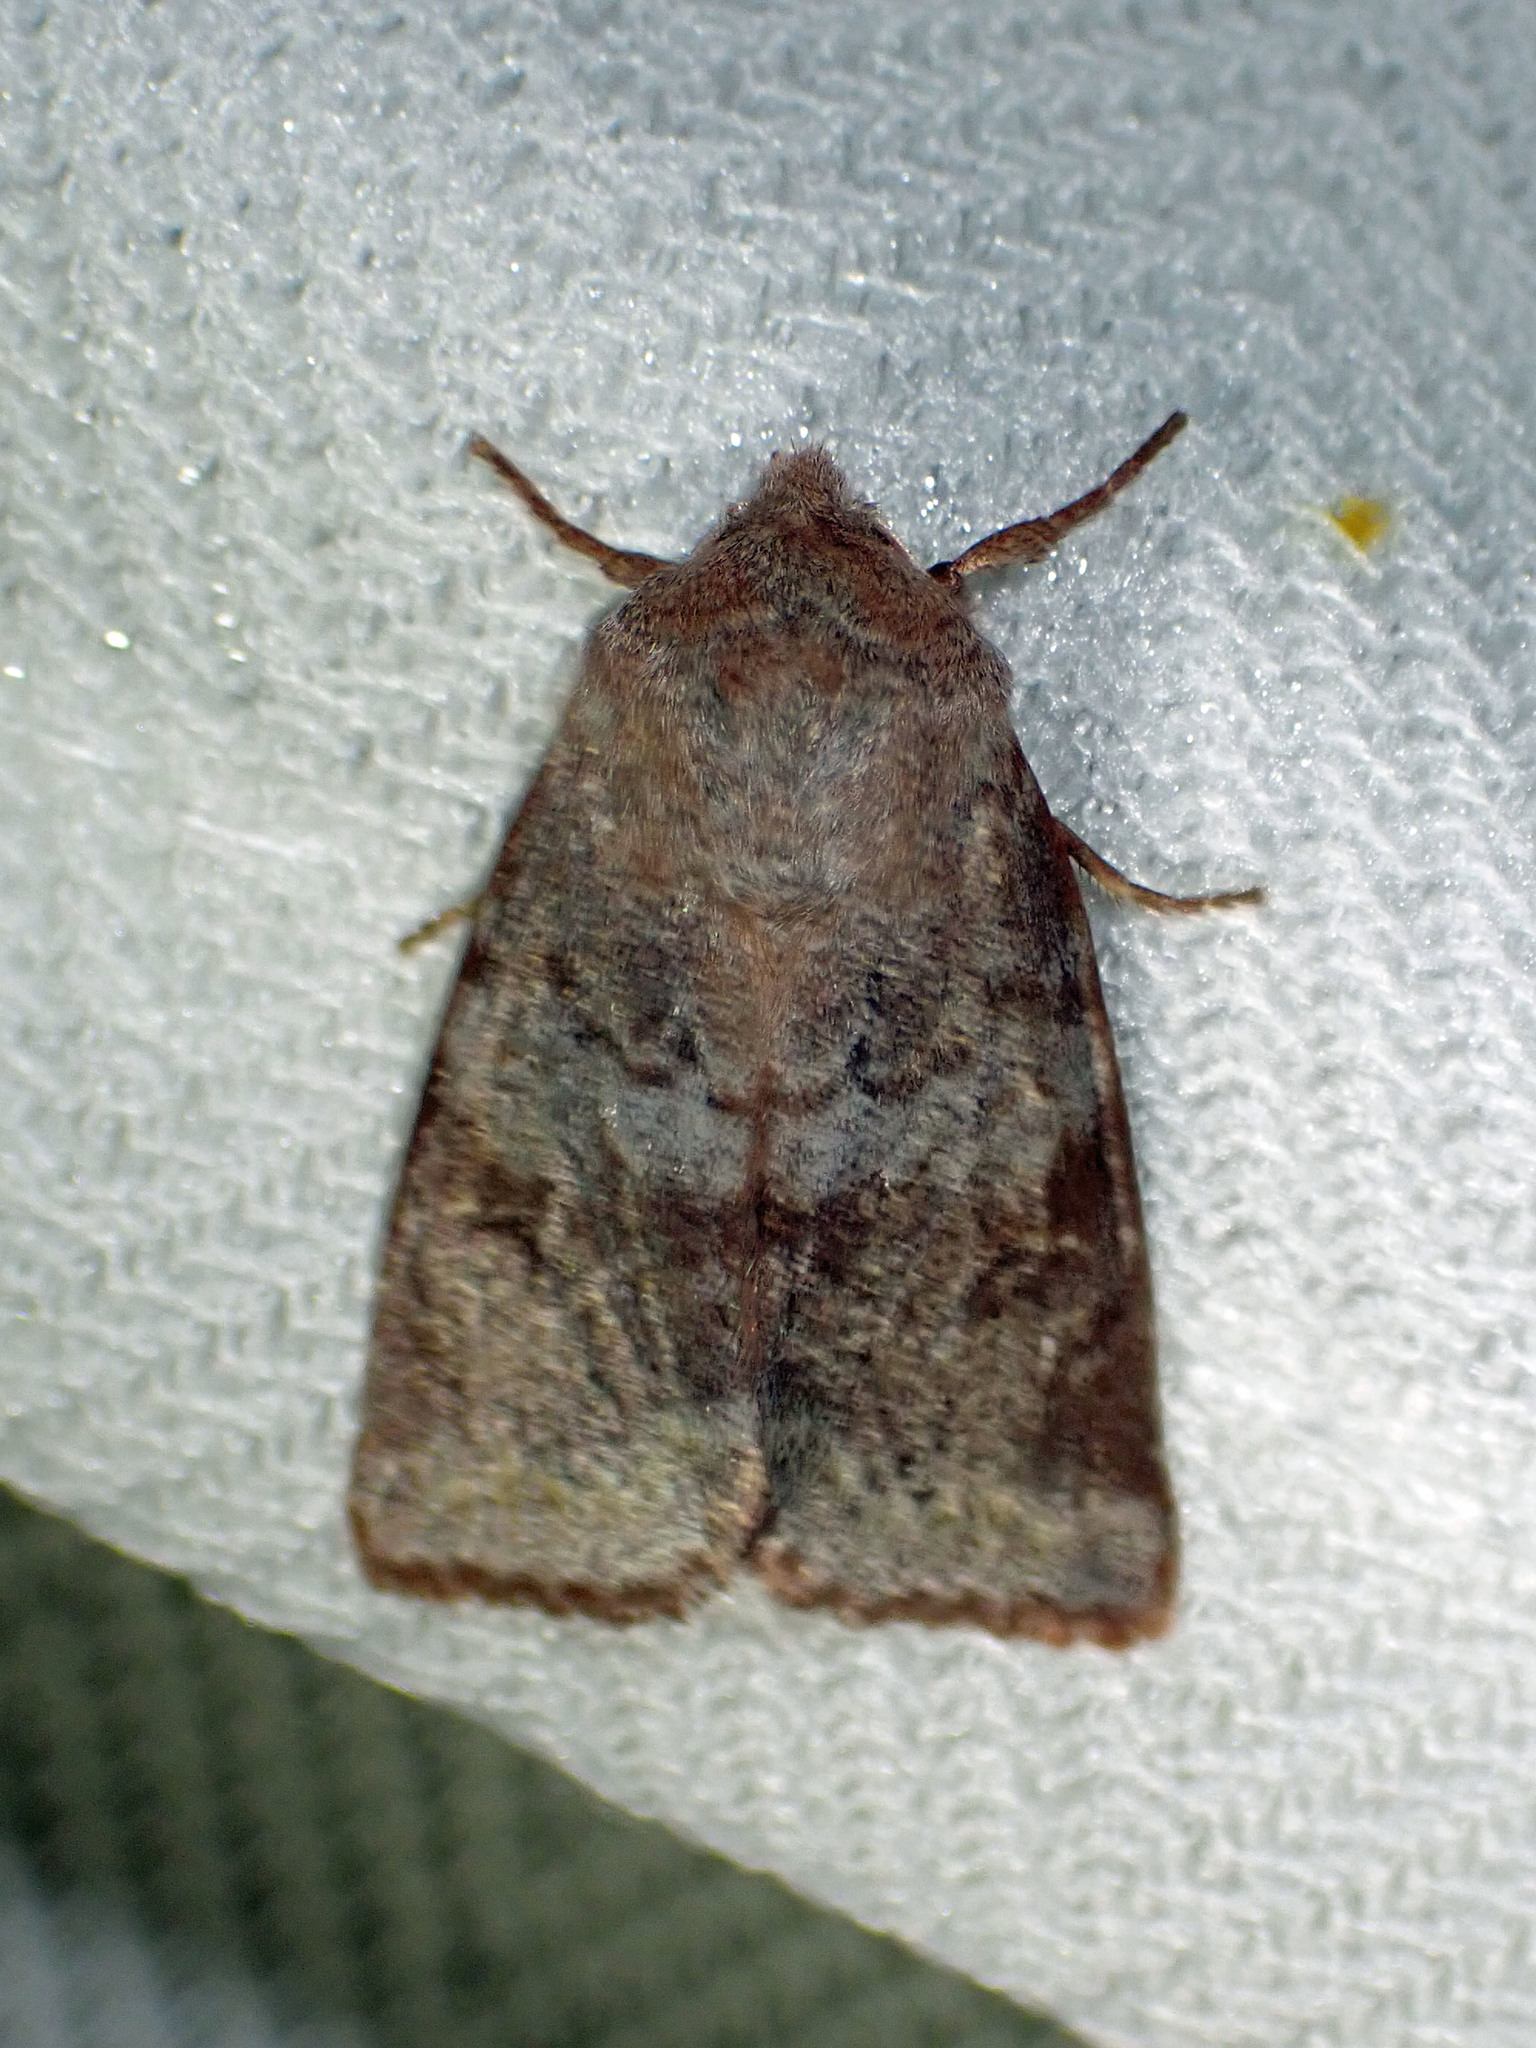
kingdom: Animalia
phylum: Arthropoda
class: Insecta
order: Lepidoptera
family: Noctuidae
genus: Orthosia
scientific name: Orthosia hibisci
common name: Green fruitworm
